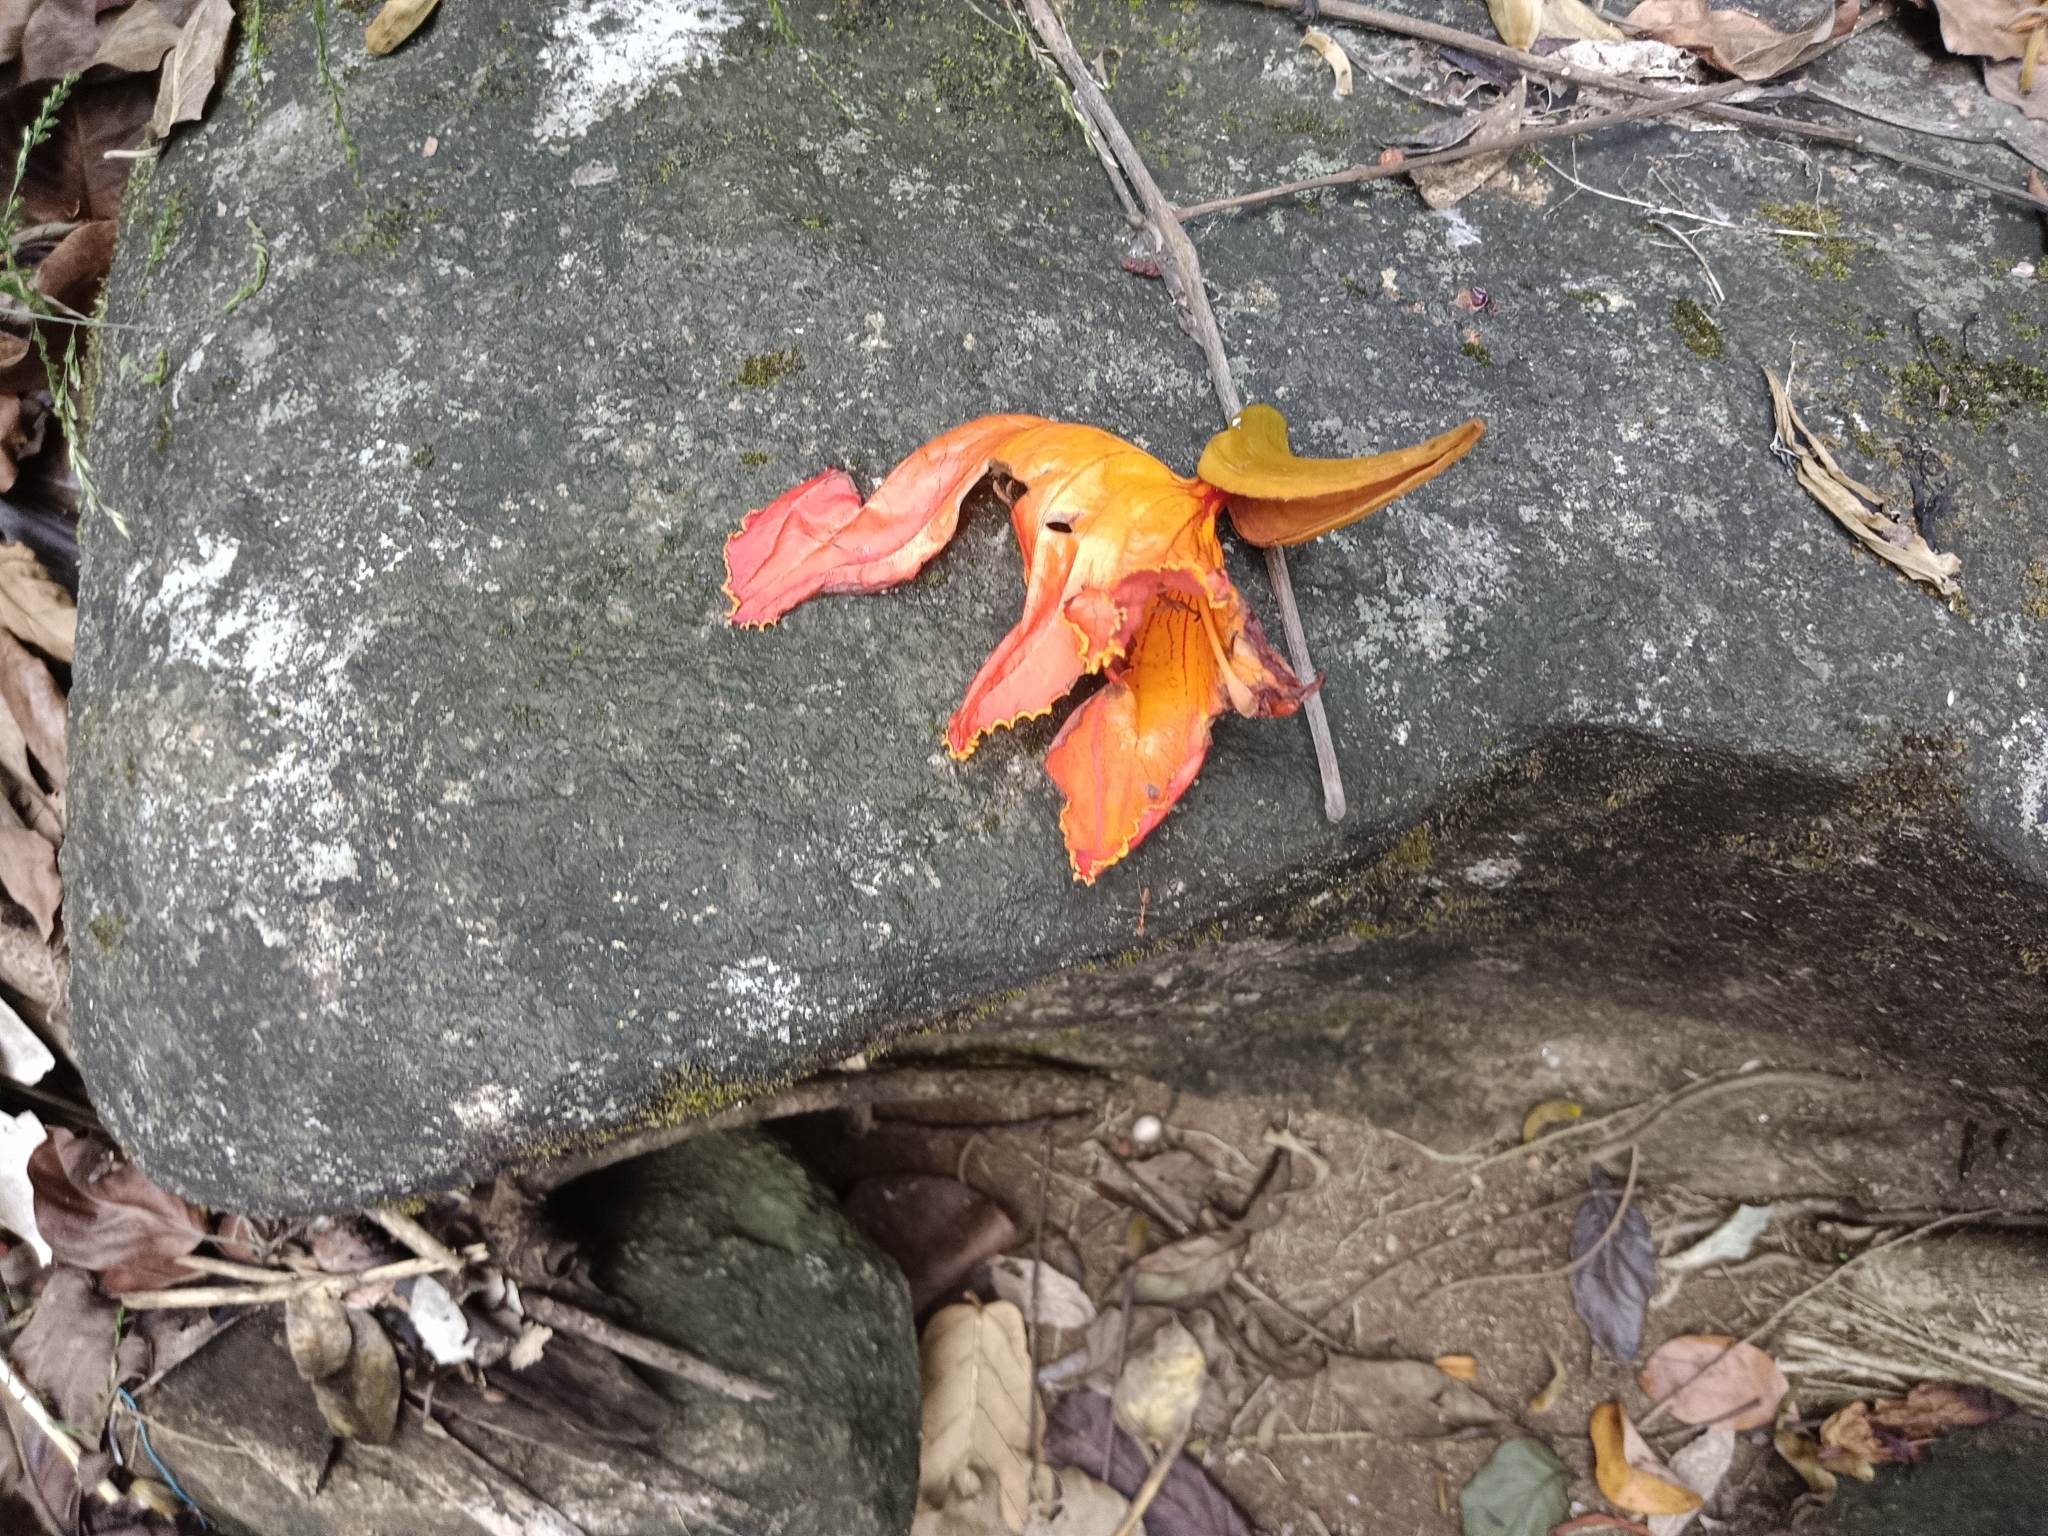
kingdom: Plantae
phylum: Tracheophyta
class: Magnoliopsida
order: Lamiales
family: Bignoniaceae
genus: Spathodea
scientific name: Spathodea campanulata
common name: African tuliptree
